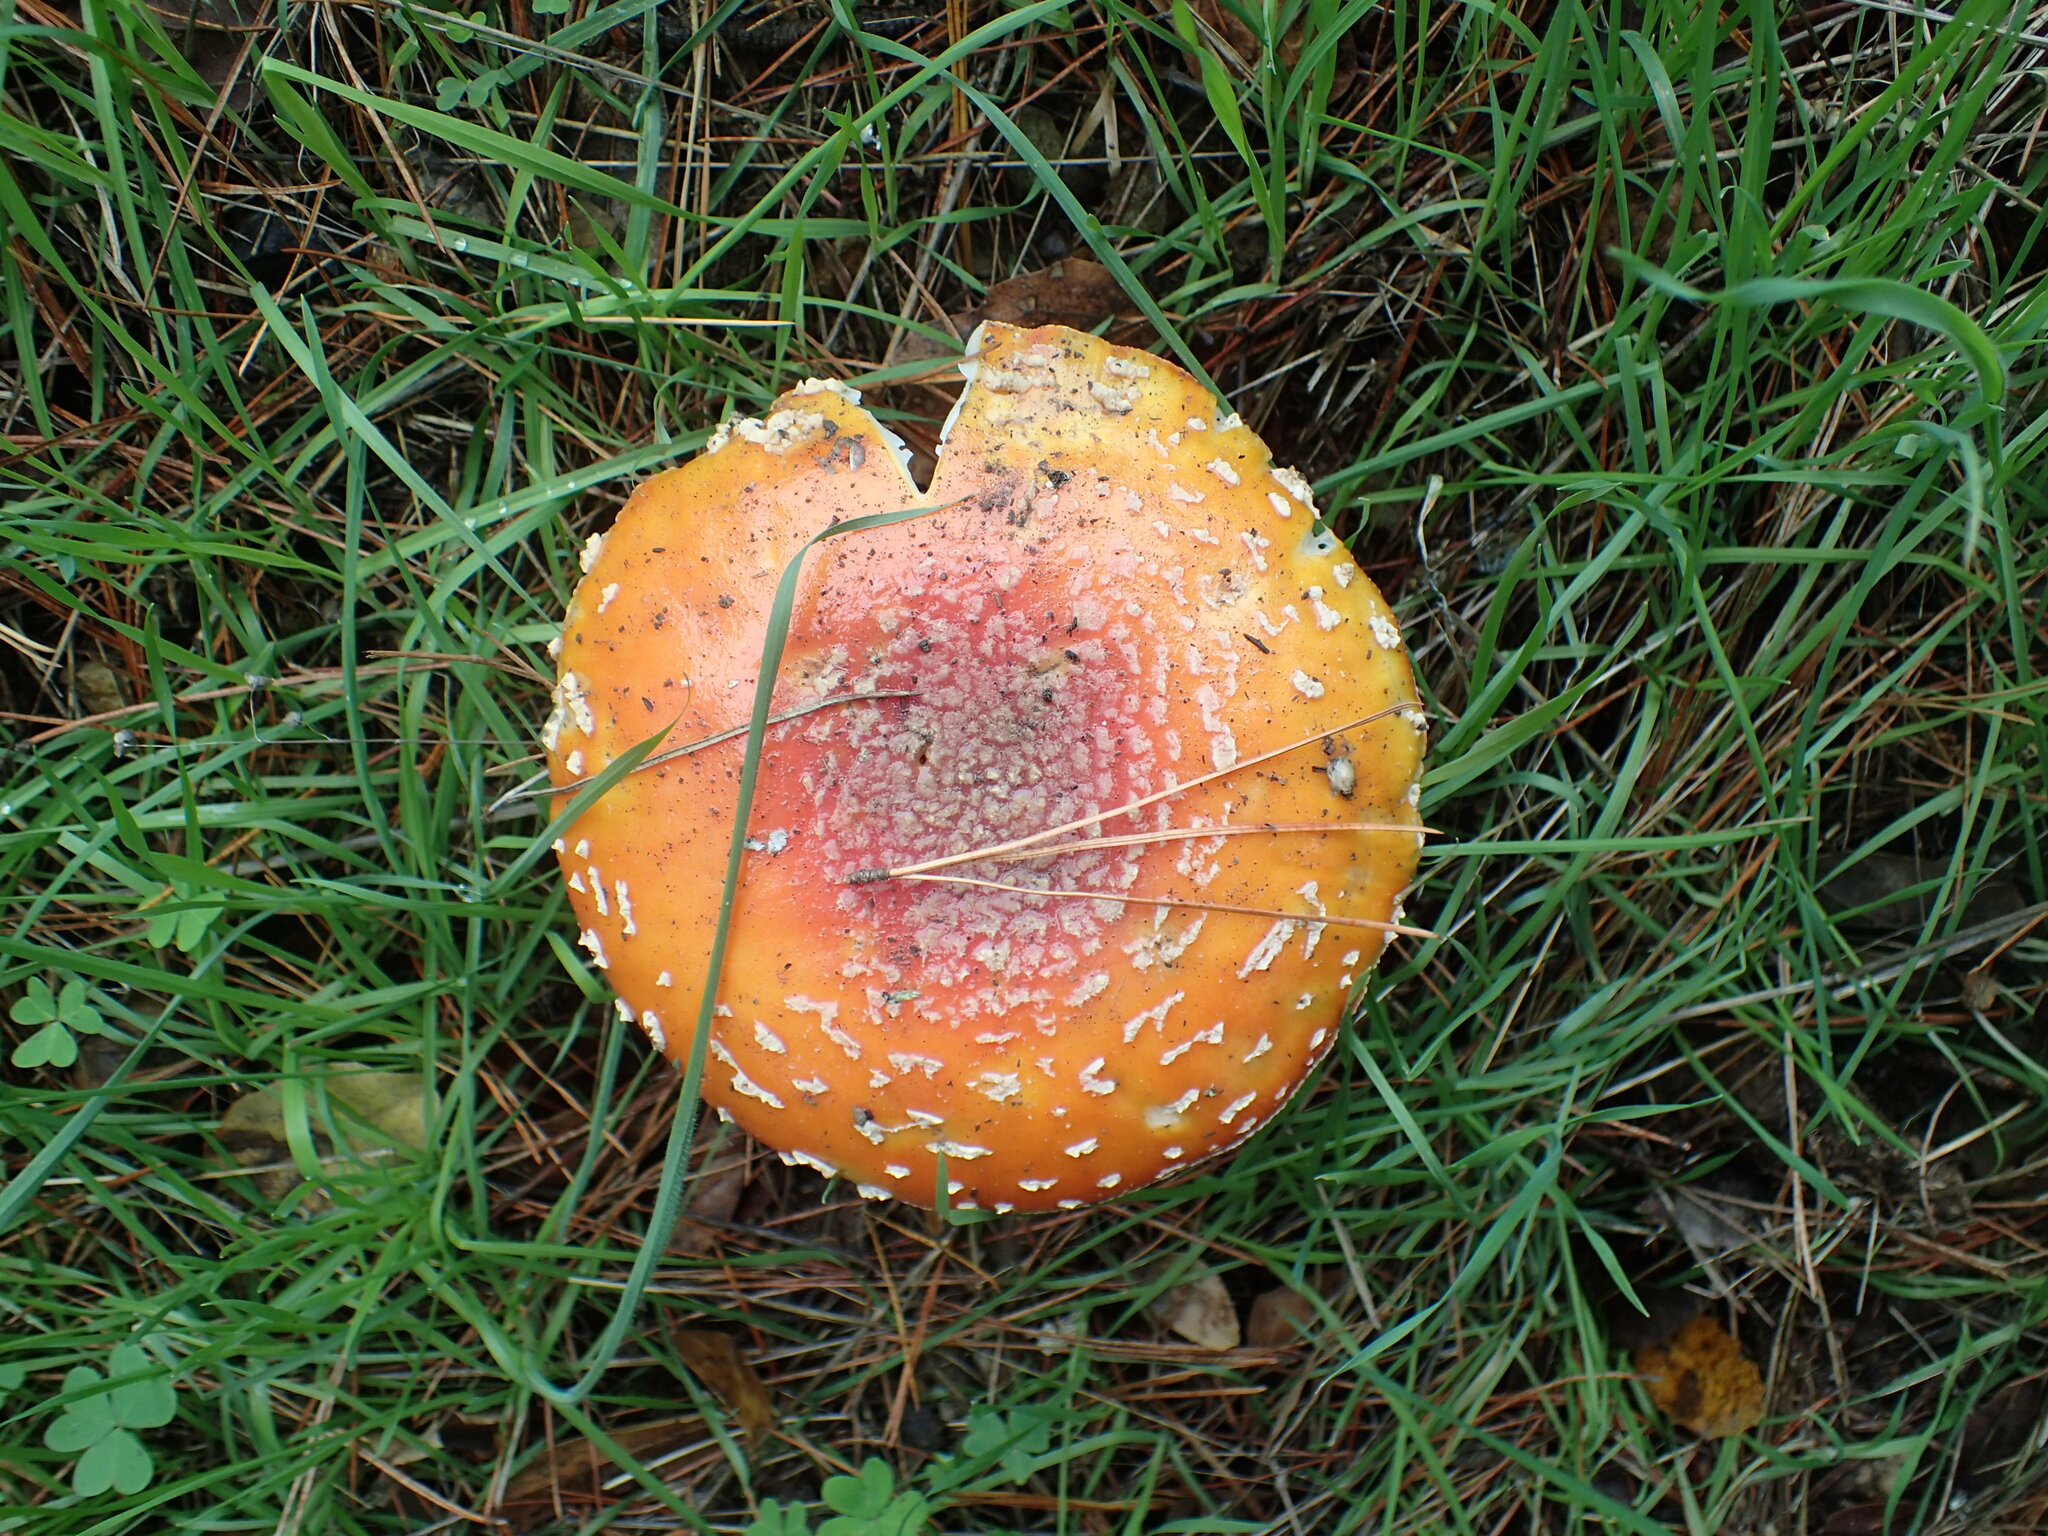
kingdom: Fungi
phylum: Basidiomycota
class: Agaricomycetes
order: Agaricales
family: Amanitaceae
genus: Amanita
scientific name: Amanita muscaria
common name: Fly agaric
